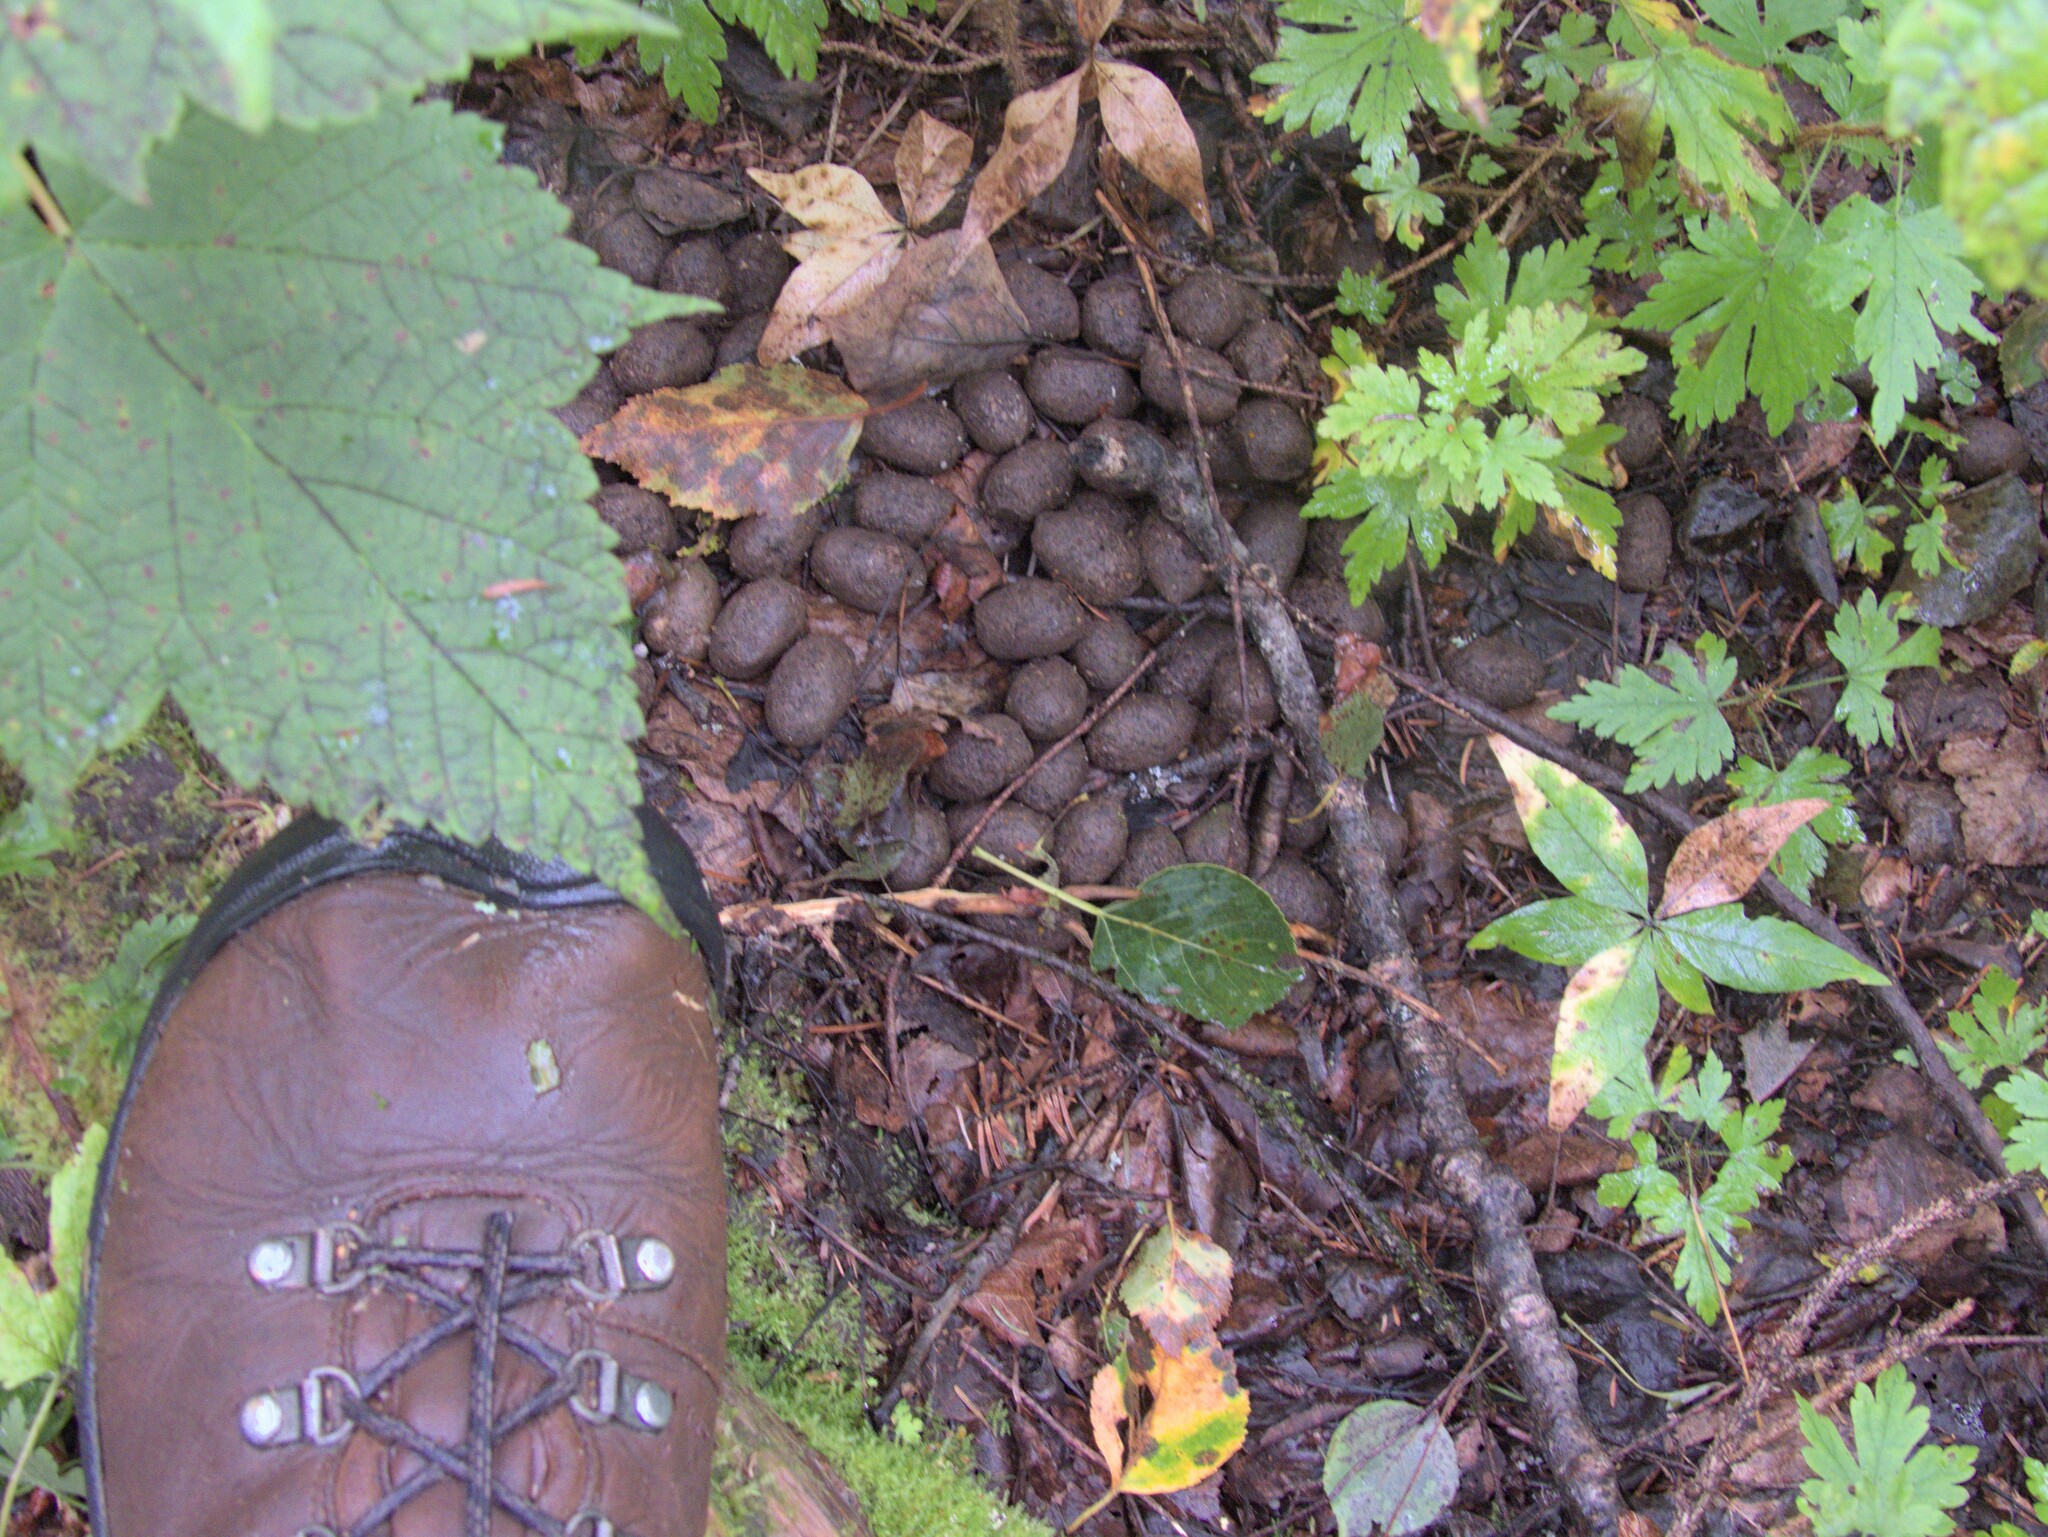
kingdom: Animalia
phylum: Chordata
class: Mammalia
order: Artiodactyla
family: Cervidae
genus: Alces
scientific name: Alces alces
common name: Moose
